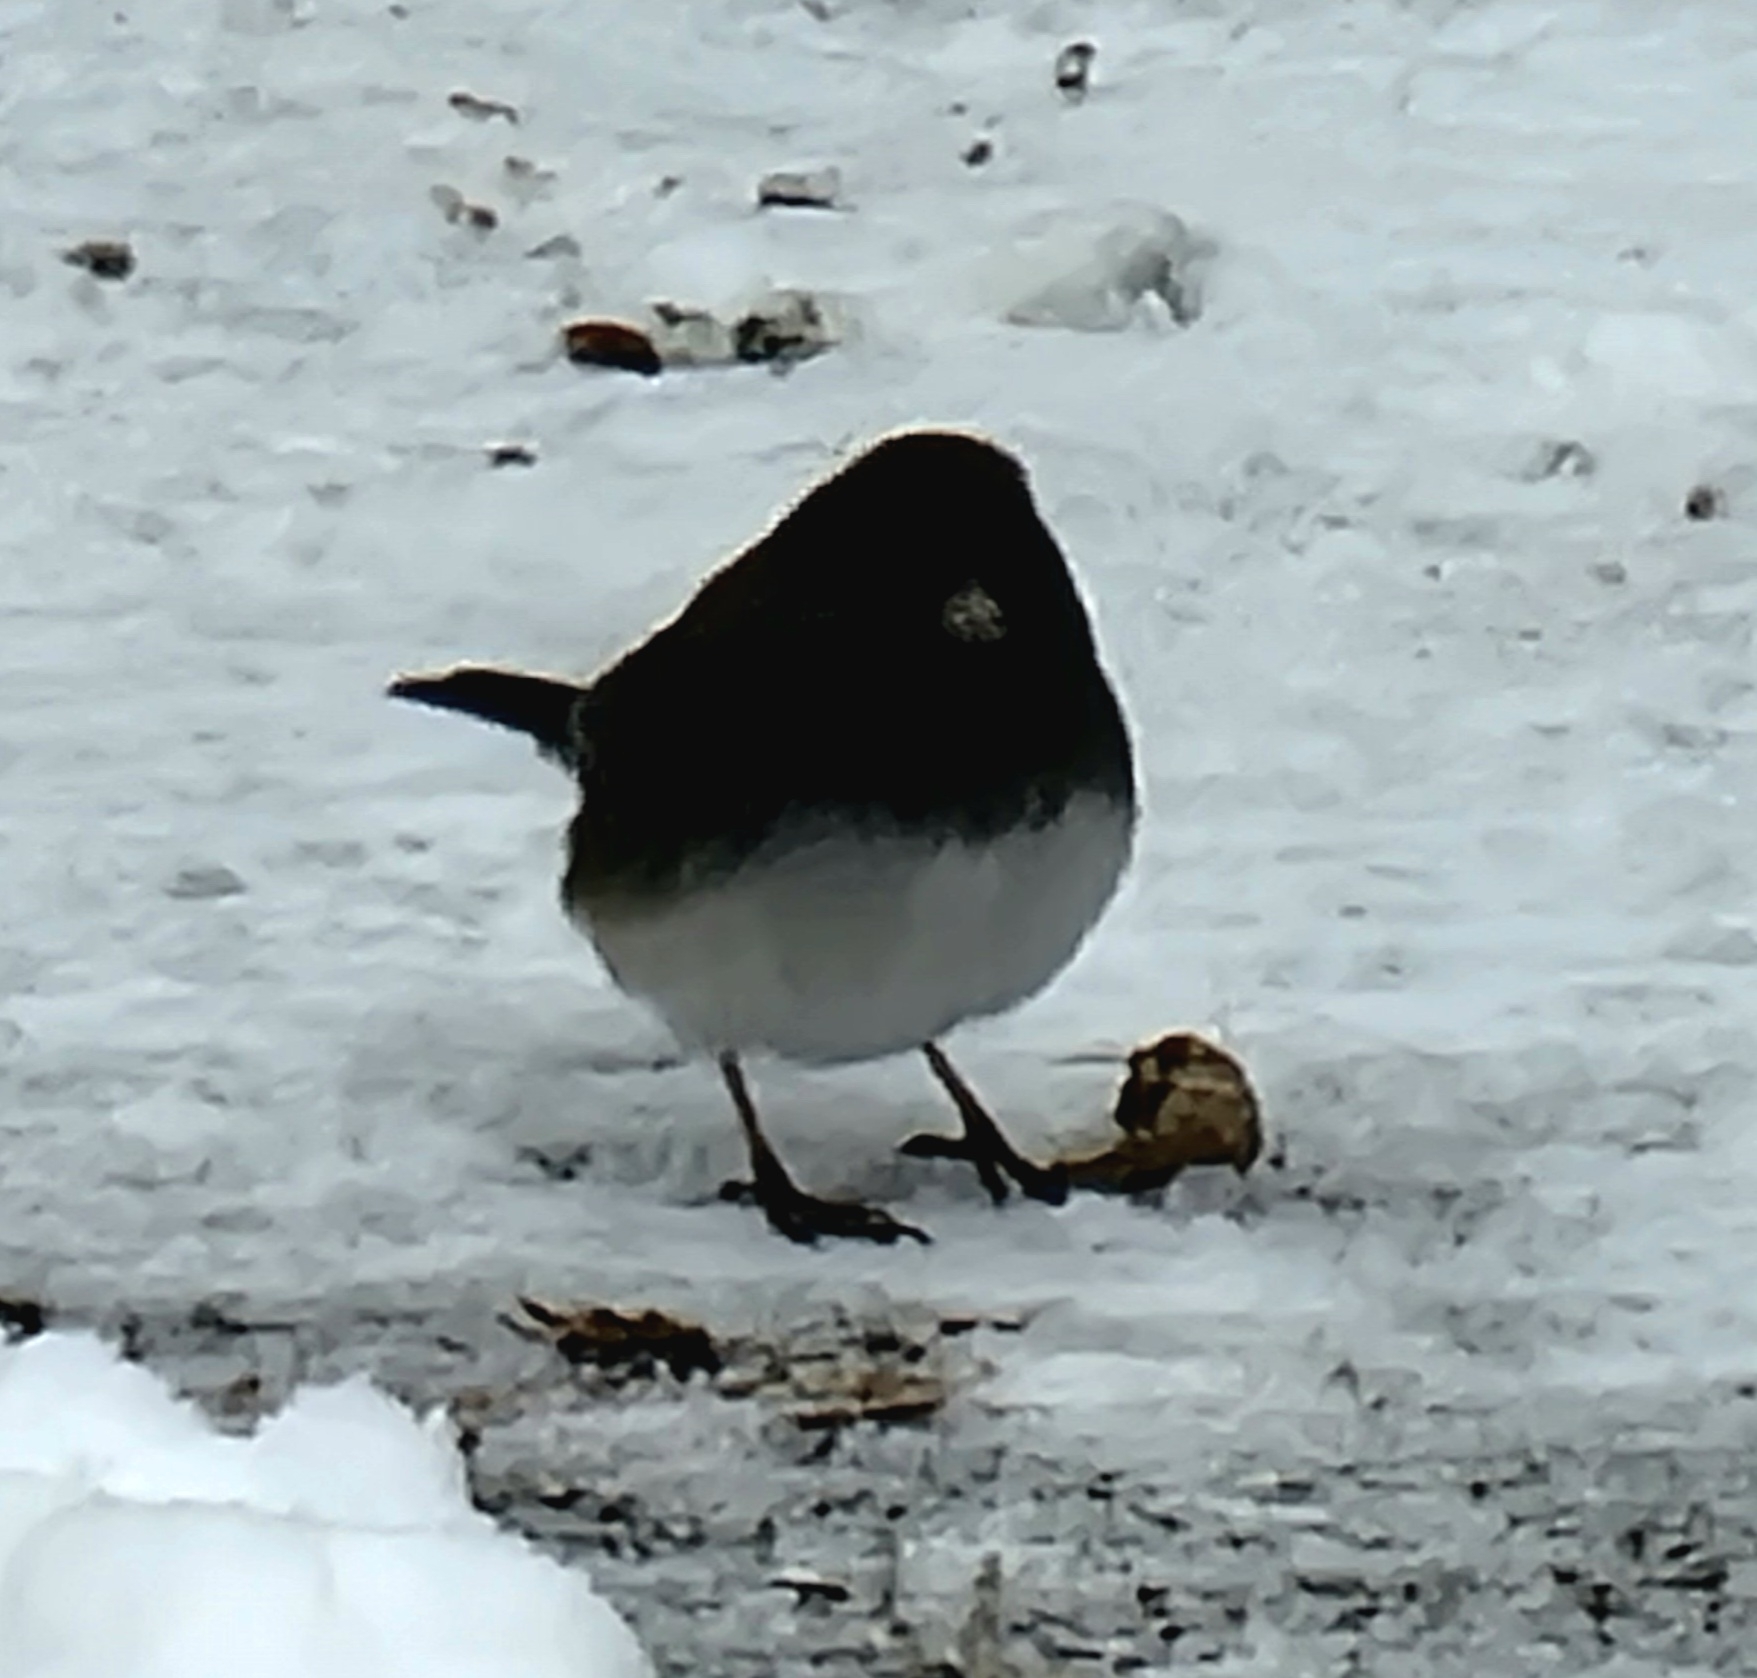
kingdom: Animalia
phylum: Chordata
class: Aves
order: Passeriformes
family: Passerellidae
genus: Junco
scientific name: Junco hyemalis
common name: Dark-eyed junco
